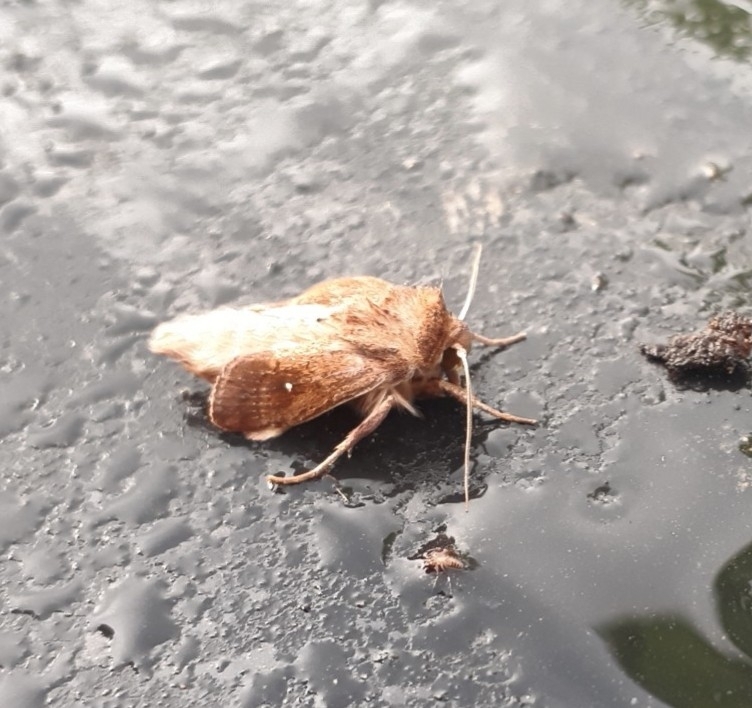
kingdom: Animalia
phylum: Arthropoda
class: Insecta
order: Lepidoptera
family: Noctuidae
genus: Mythimna
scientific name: Mythimna albipuncta
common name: White-point
